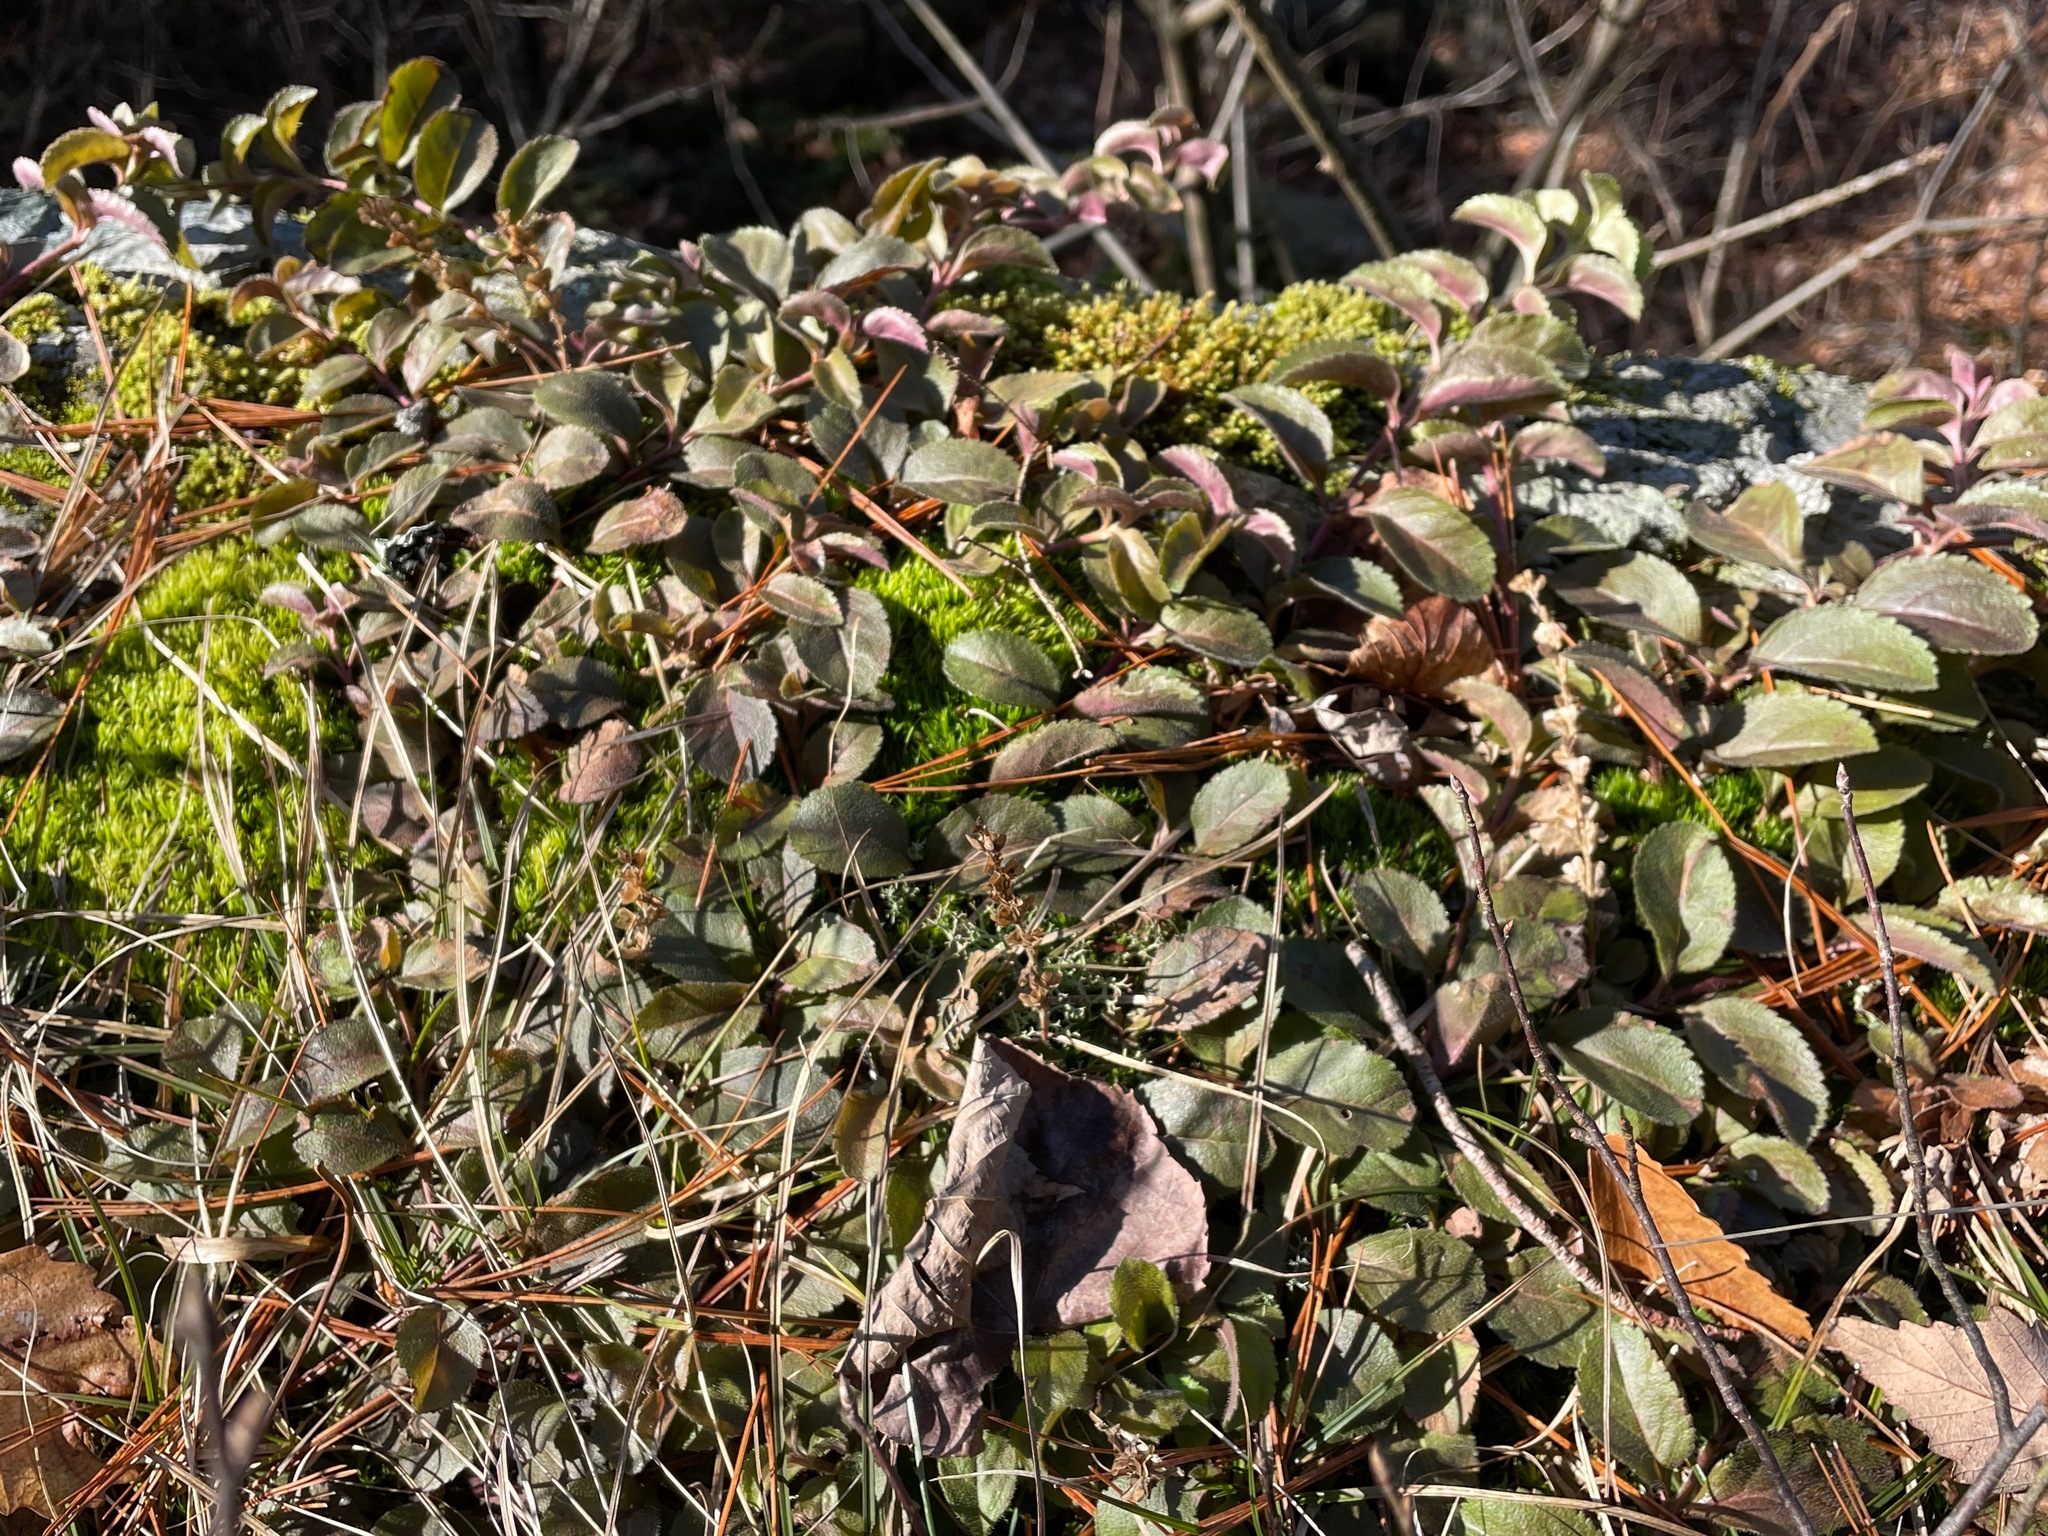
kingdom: Plantae
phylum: Tracheophyta
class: Magnoliopsida
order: Lamiales
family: Plantaginaceae
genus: Veronica
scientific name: Veronica officinalis
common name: Common speedwell
